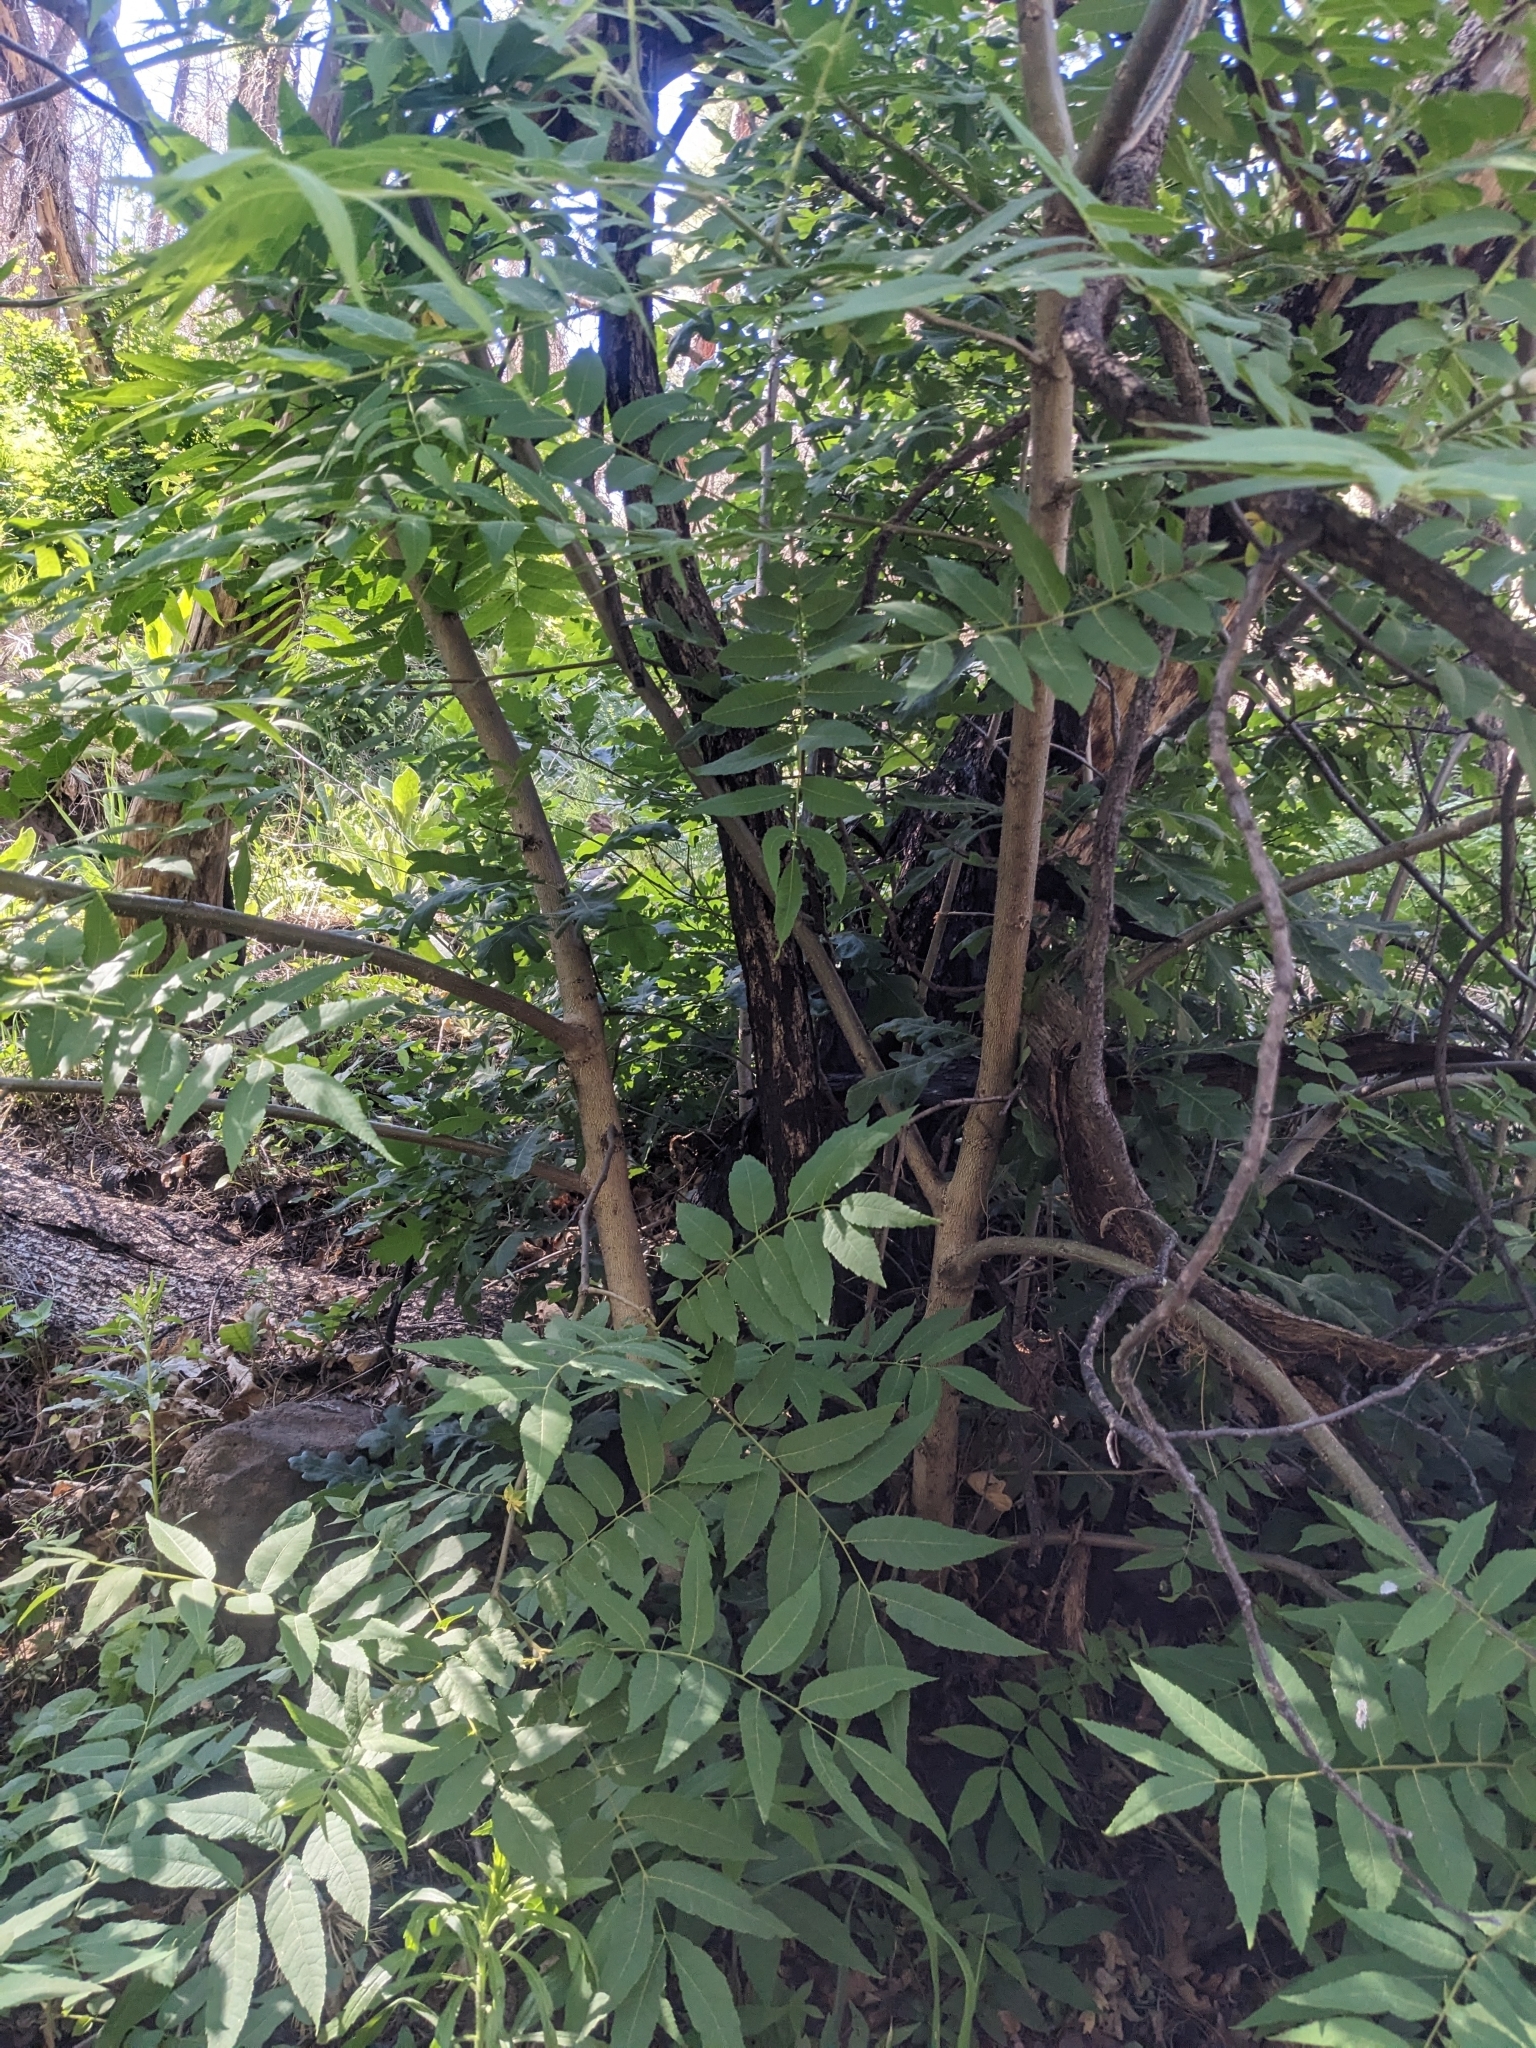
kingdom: Plantae
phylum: Tracheophyta
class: Magnoliopsida
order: Fagales
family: Juglandaceae
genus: Juglans
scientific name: Juglans major
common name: Arizona walnut
